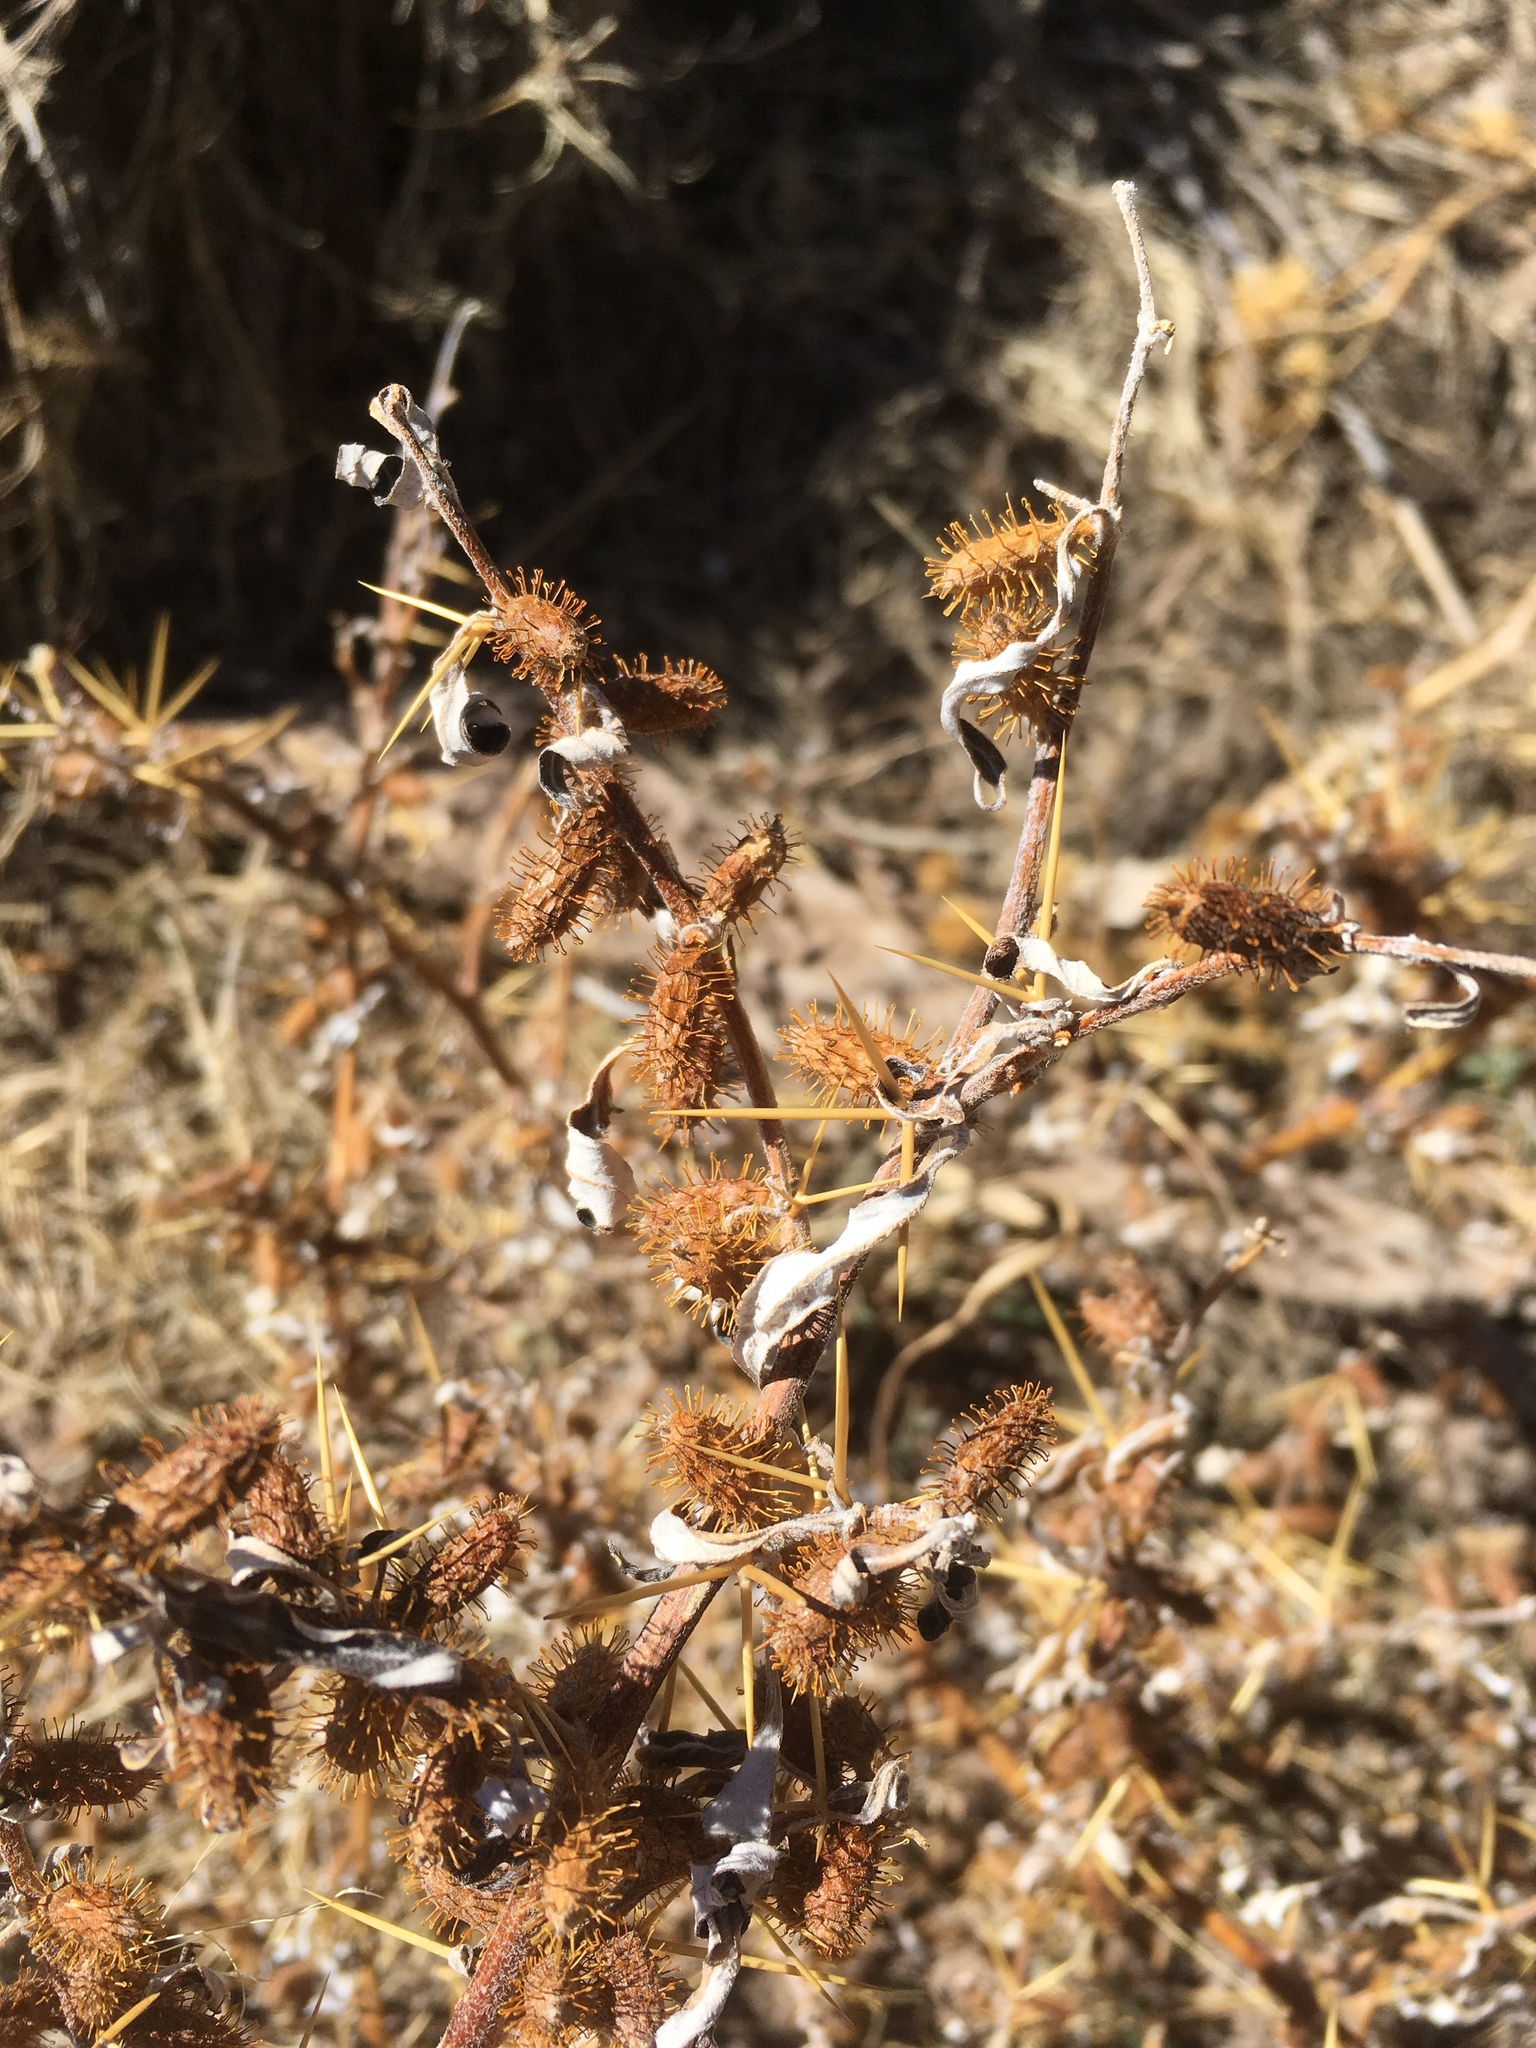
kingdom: Plantae
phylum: Tracheophyta
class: Magnoliopsida
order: Asterales
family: Asteraceae
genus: Xanthium
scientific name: Xanthium spinosum
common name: Spiny cocklebur
